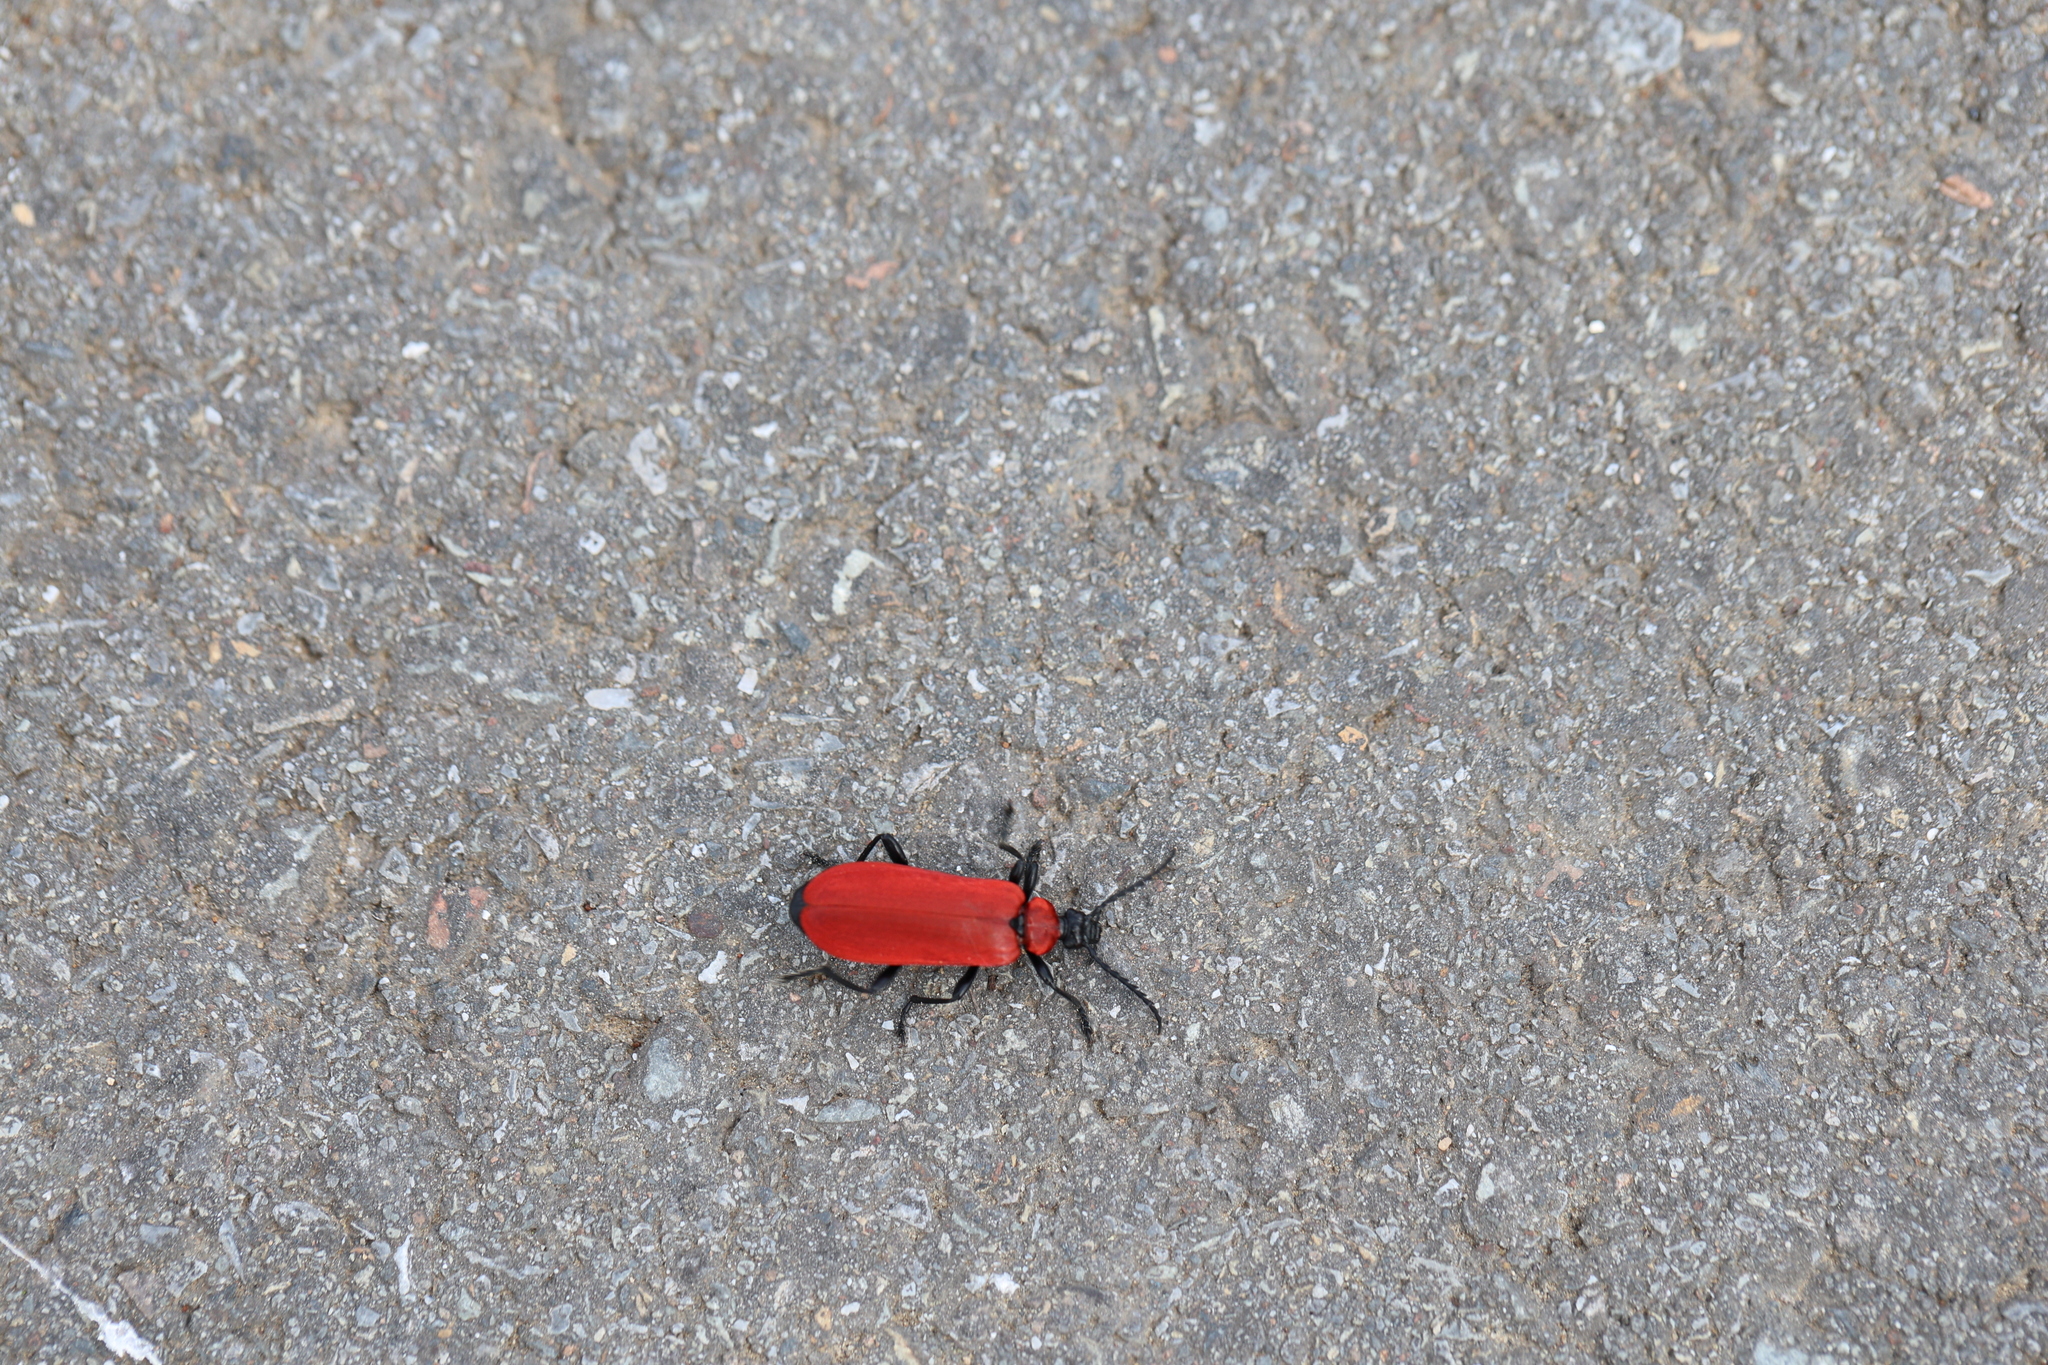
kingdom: Animalia
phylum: Arthropoda
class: Insecta
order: Coleoptera
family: Pyrochroidae
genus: Pyrochroa
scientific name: Pyrochroa coccinea
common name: Black-headed cardinal beetle
